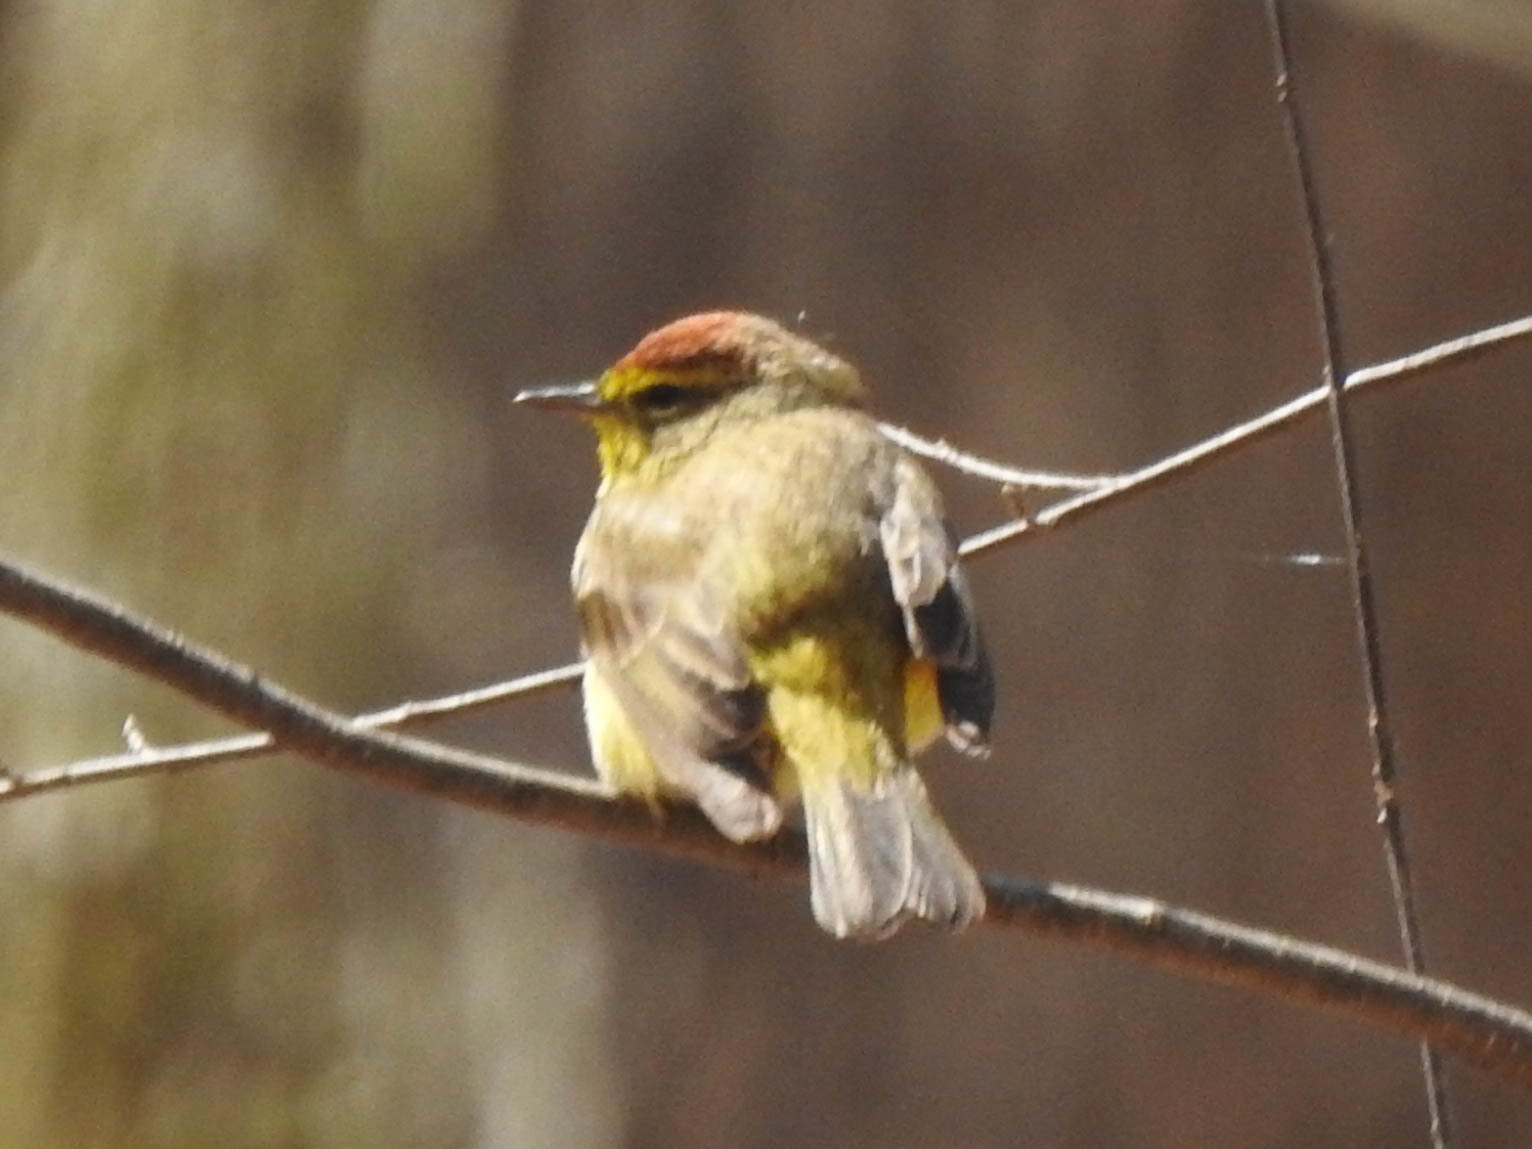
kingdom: Animalia
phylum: Chordata
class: Aves
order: Passeriformes
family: Parulidae
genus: Setophaga
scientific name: Setophaga palmarum
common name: Palm warbler
